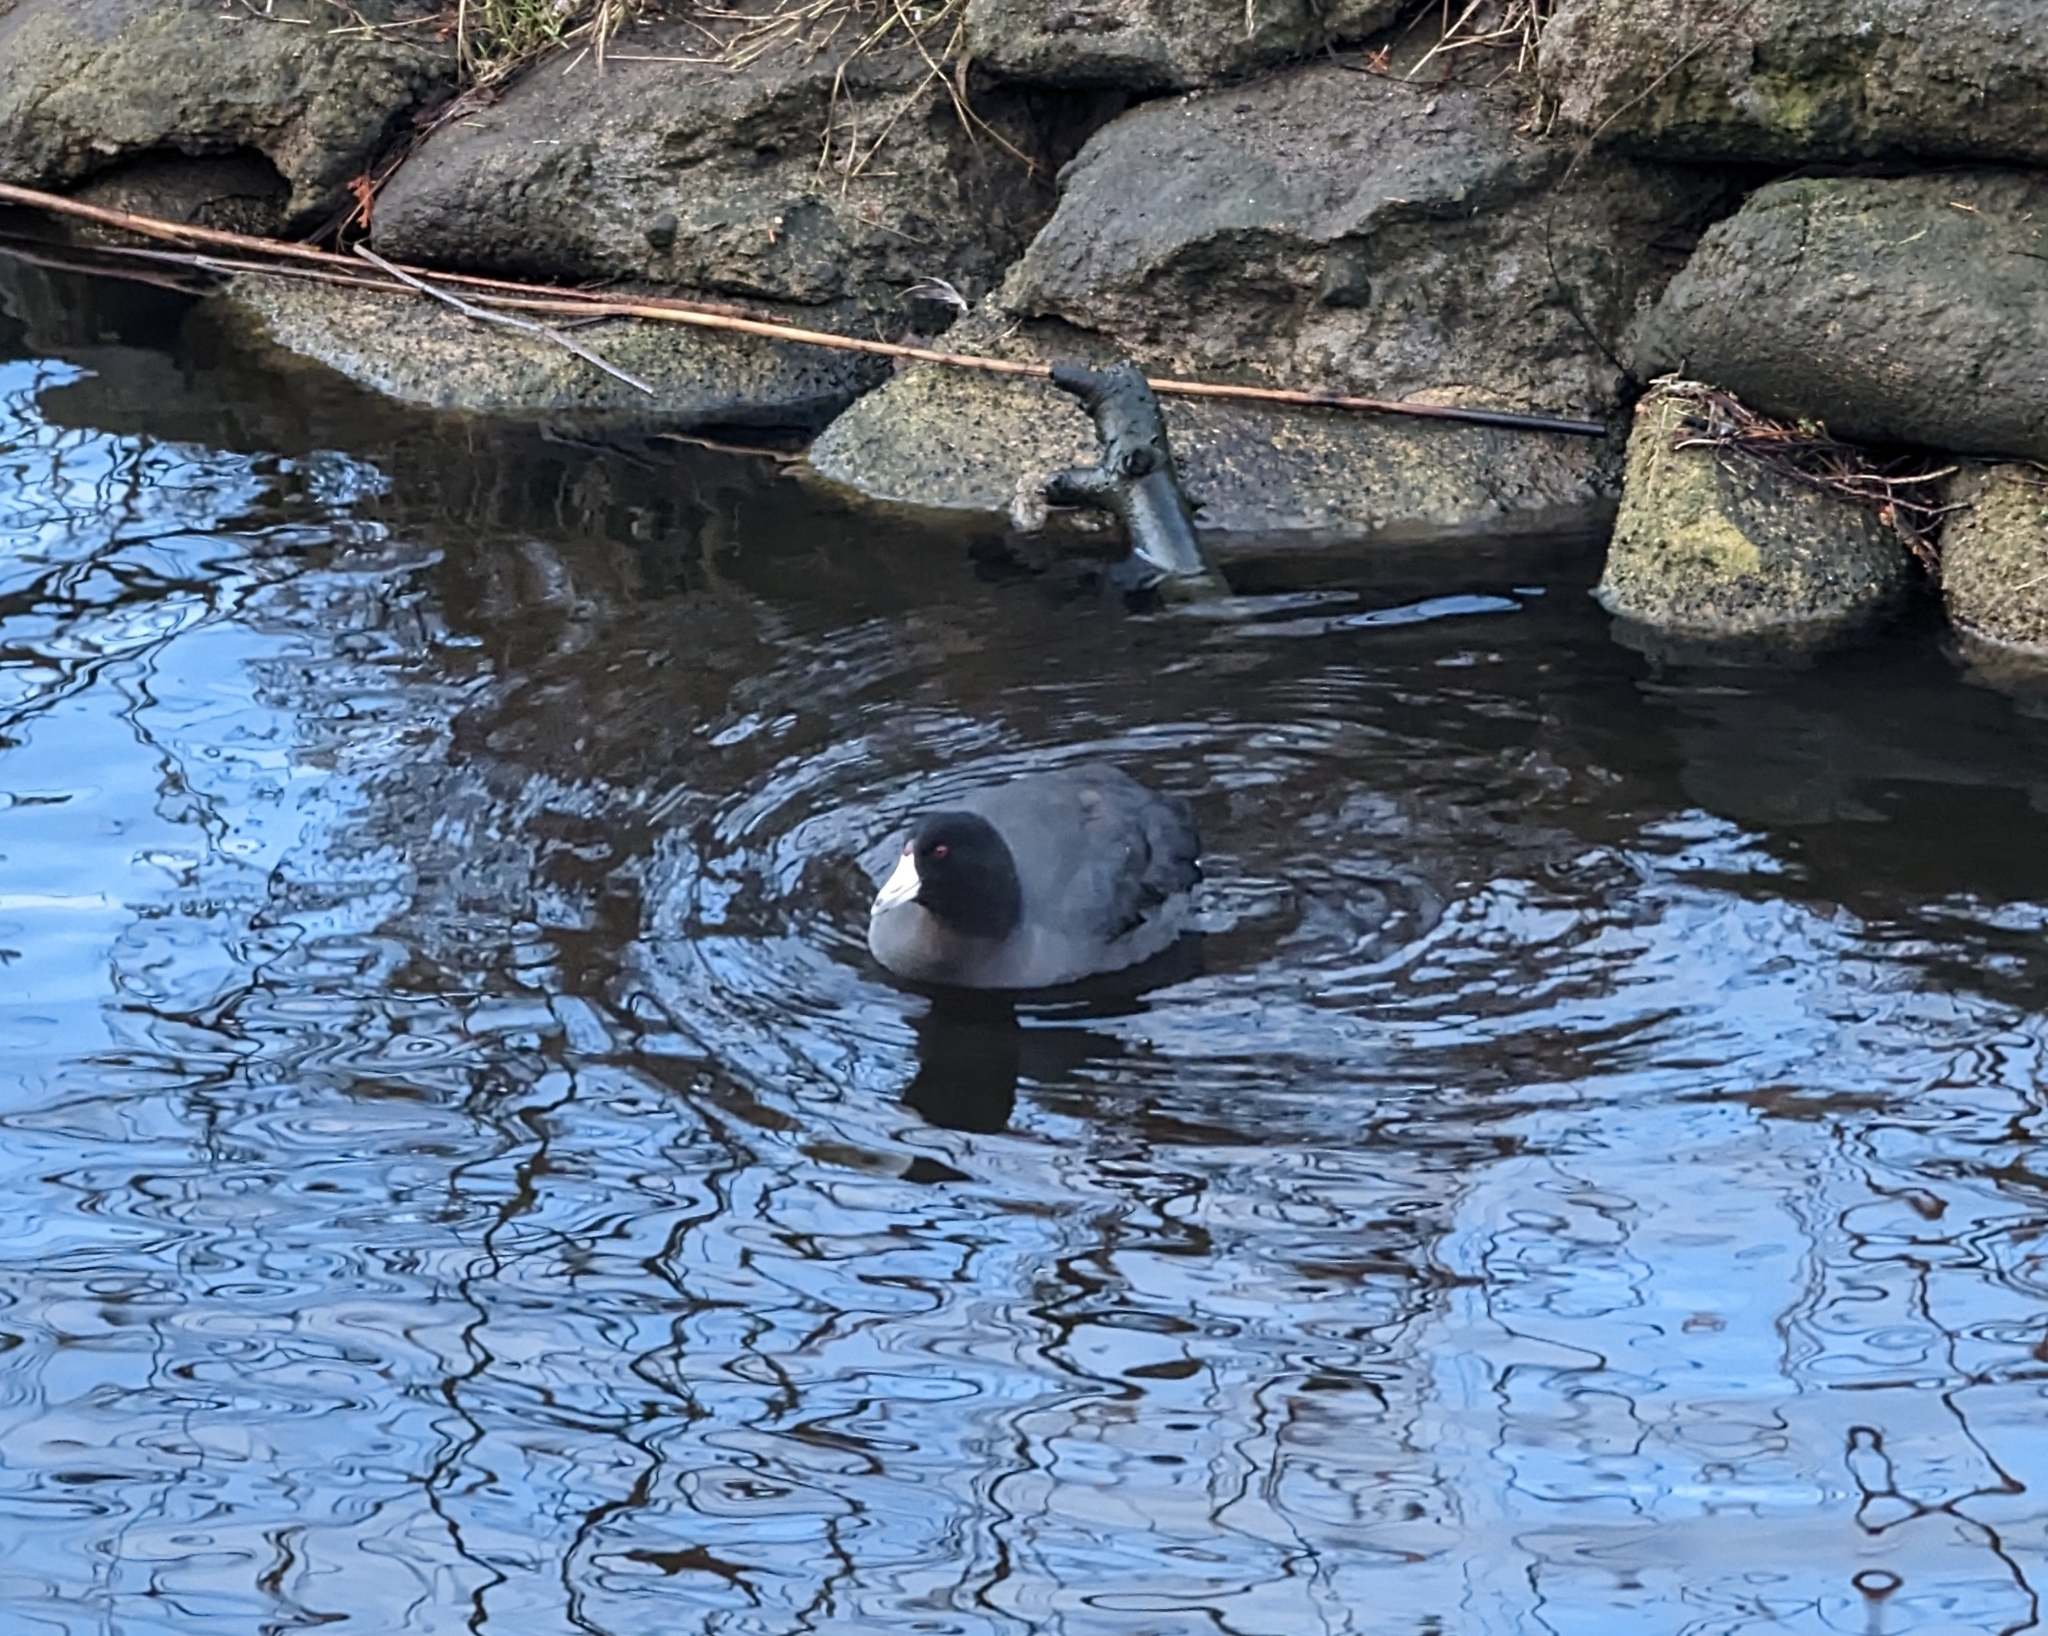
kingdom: Animalia
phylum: Chordata
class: Aves
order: Gruiformes
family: Rallidae
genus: Fulica
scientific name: Fulica americana
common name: American coot
